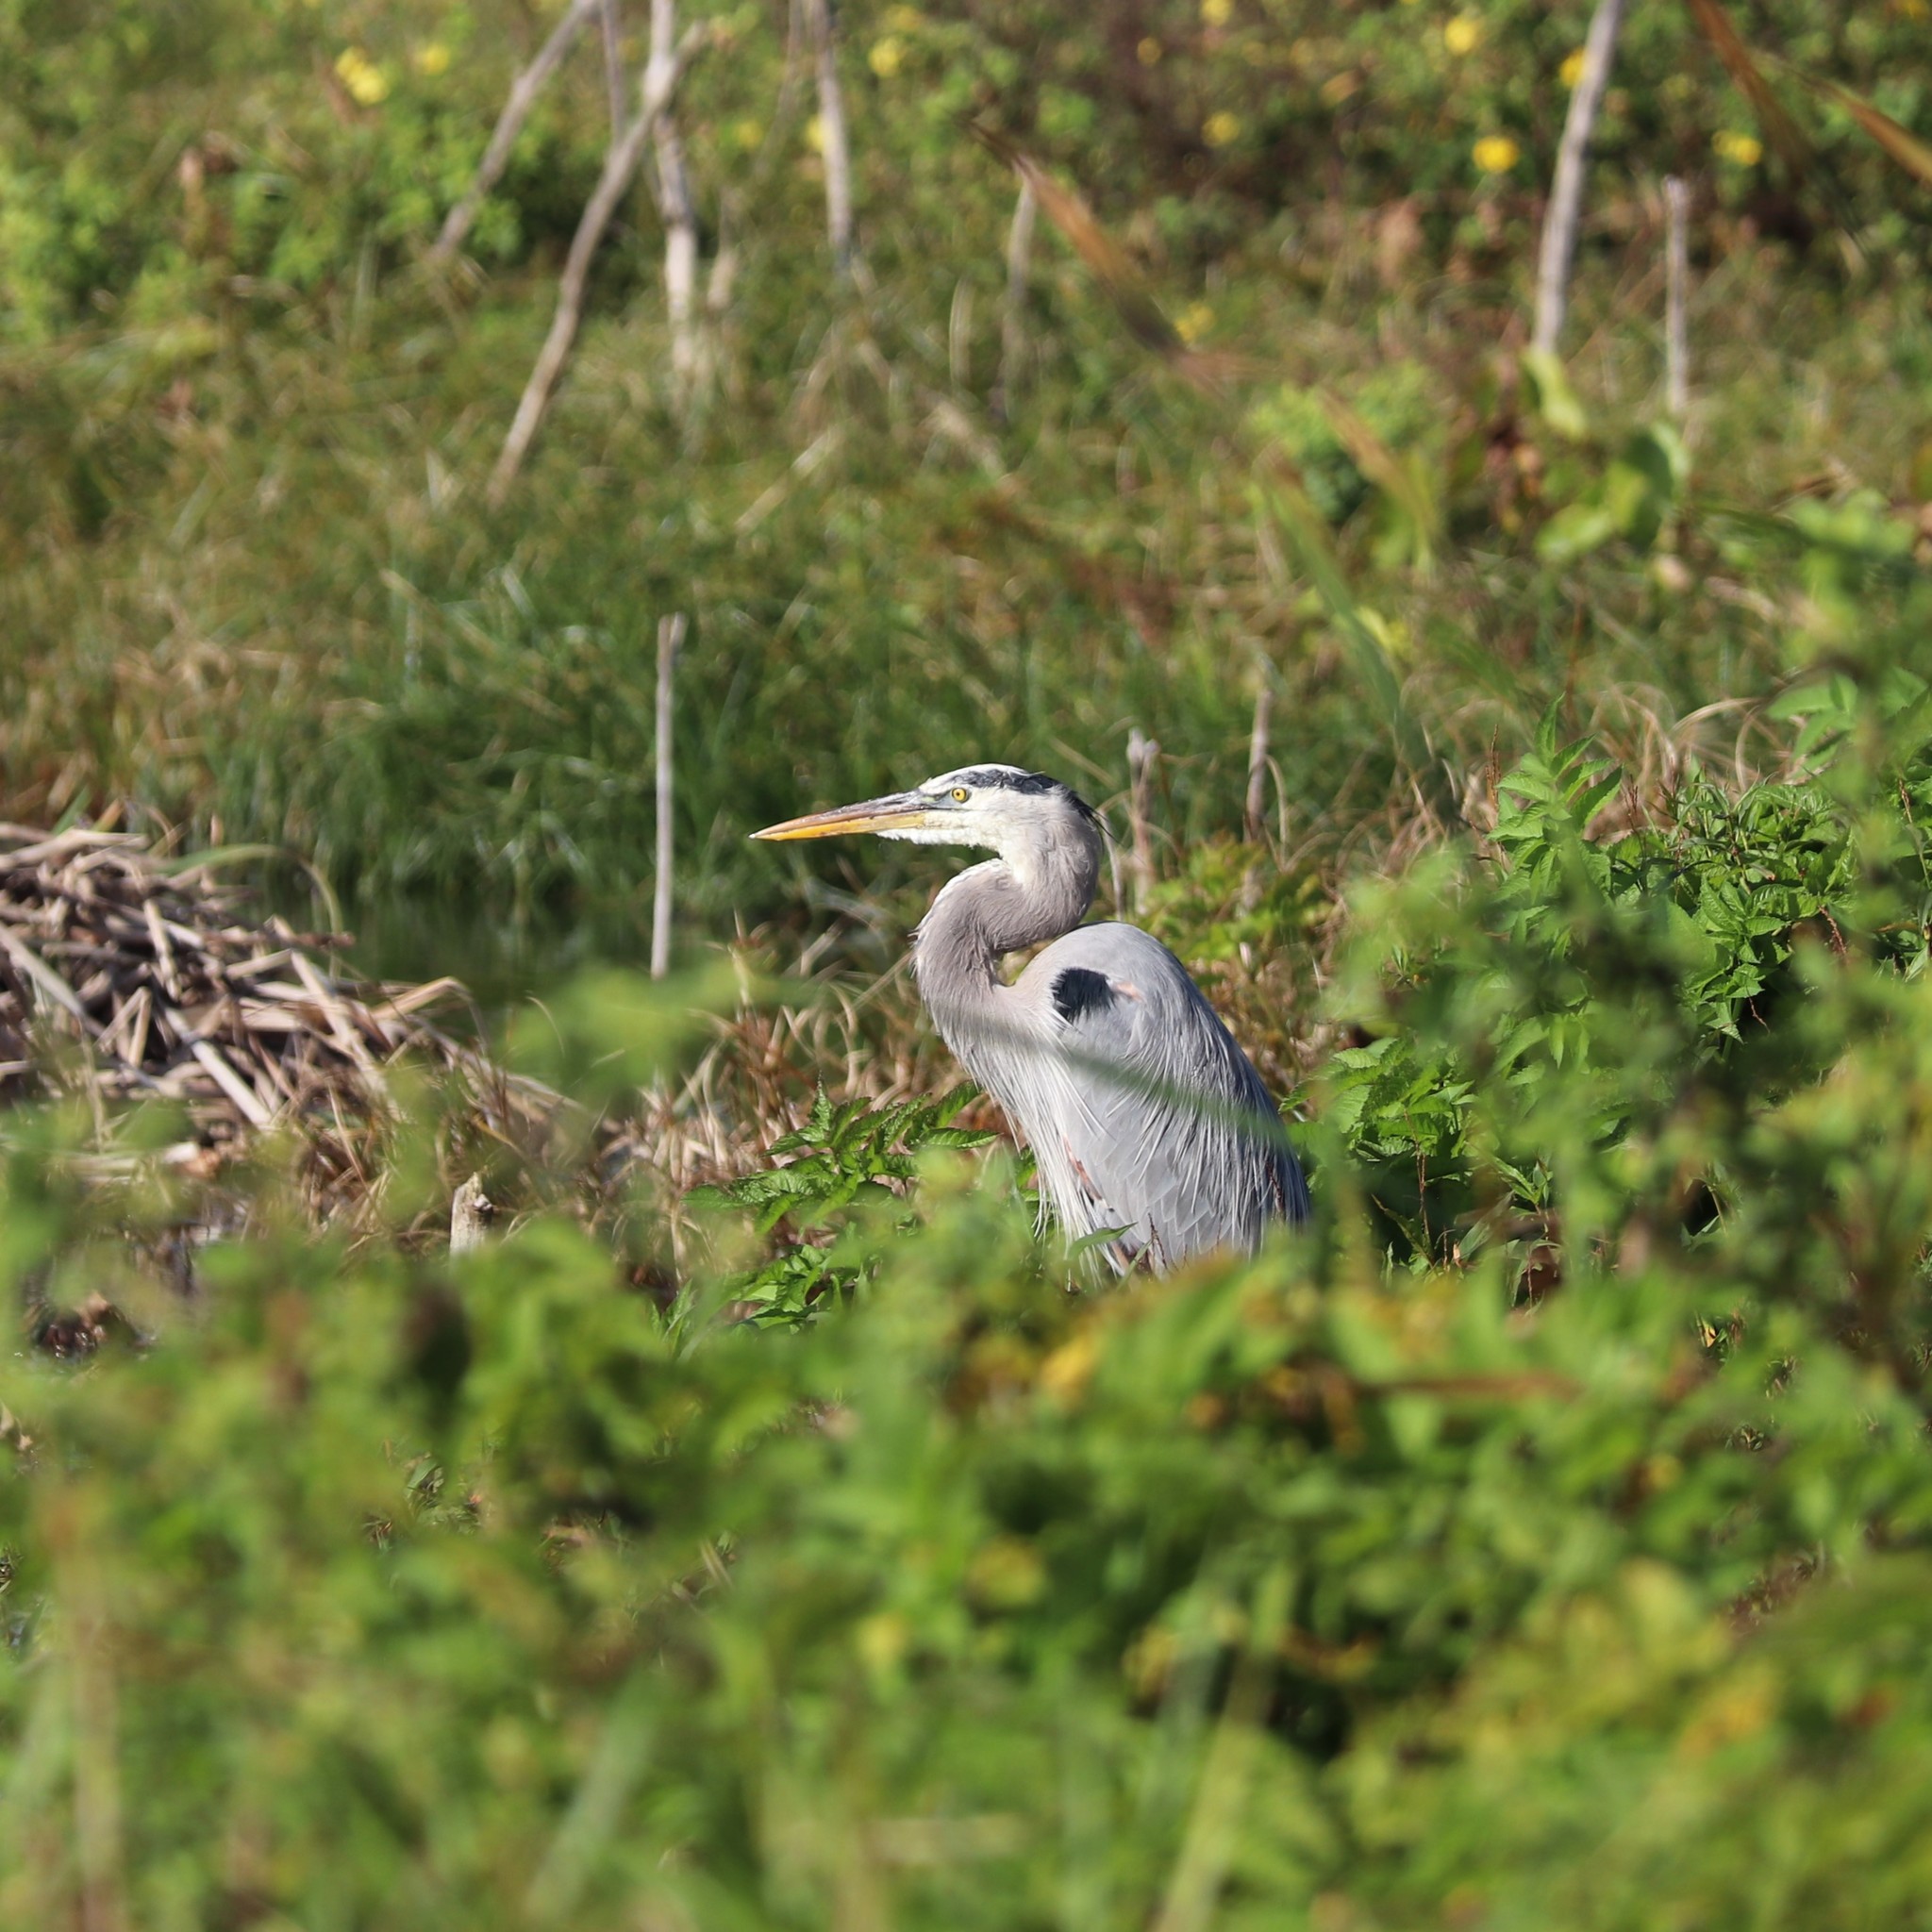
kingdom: Animalia
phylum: Chordata
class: Aves
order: Pelecaniformes
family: Ardeidae
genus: Ardea
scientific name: Ardea herodias
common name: Great blue heron
